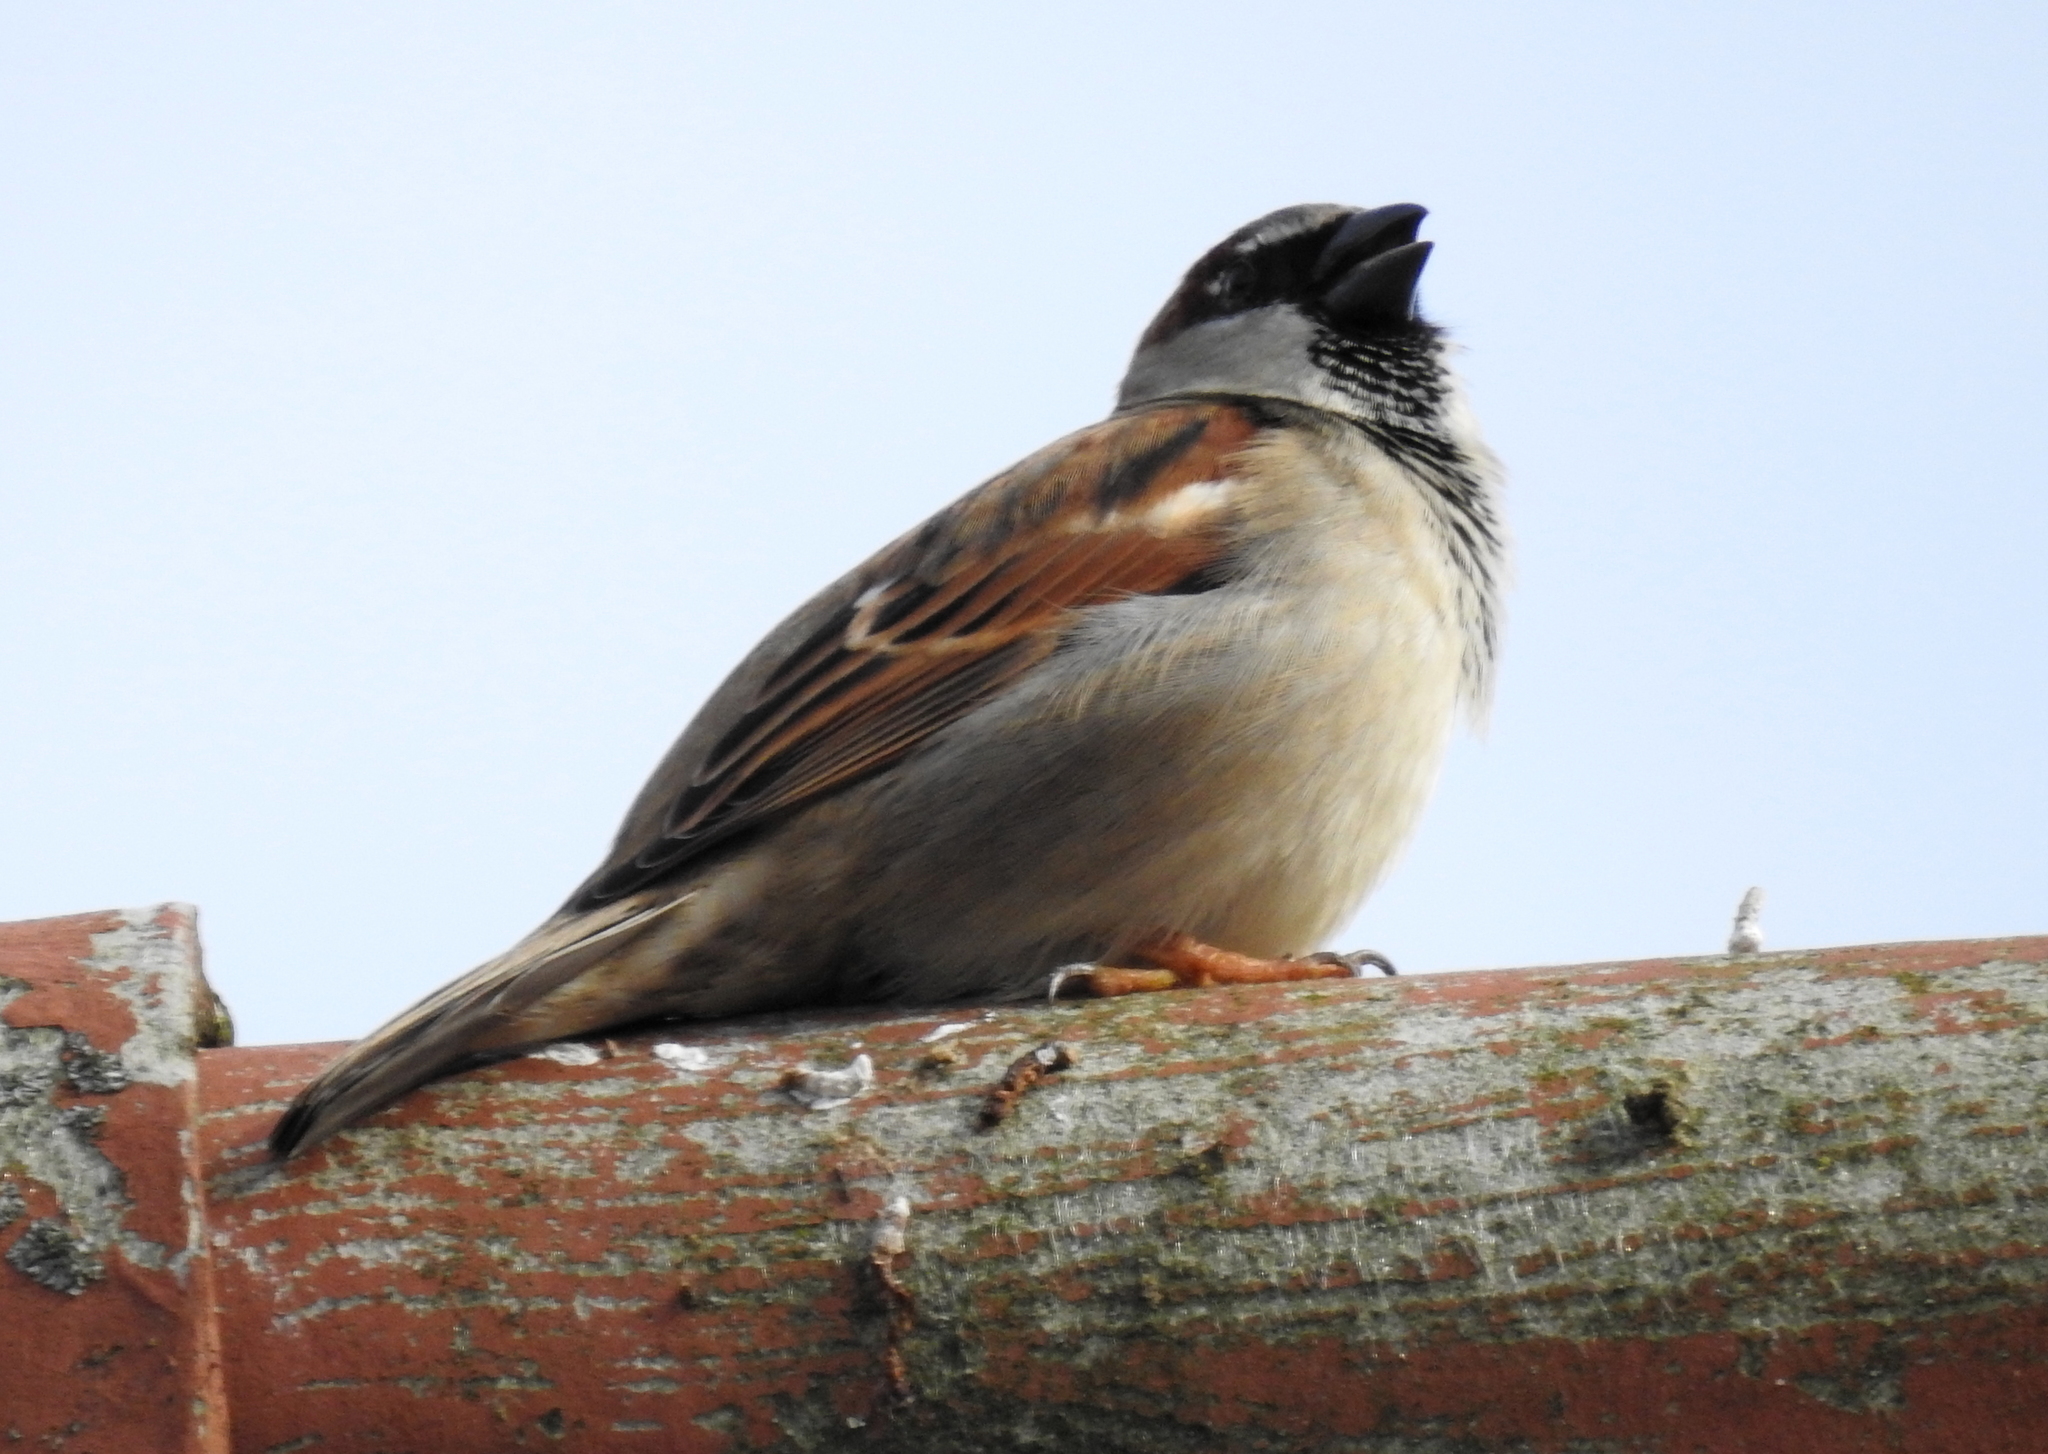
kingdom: Animalia
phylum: Chordata
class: Aves
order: Passeriformes
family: Passeridae
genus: Passer
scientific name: Passer domesticus
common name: House sparrow
